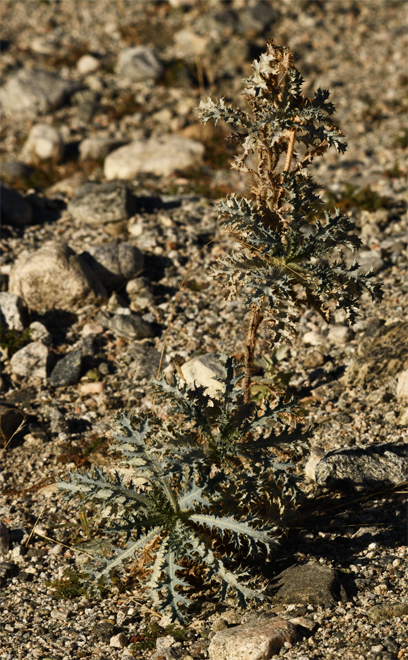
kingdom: Plantae
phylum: Tracheophyta
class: Magnoliopsida
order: Ranunculales
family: Papaveraceae
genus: Argemone
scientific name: Argemone munita
